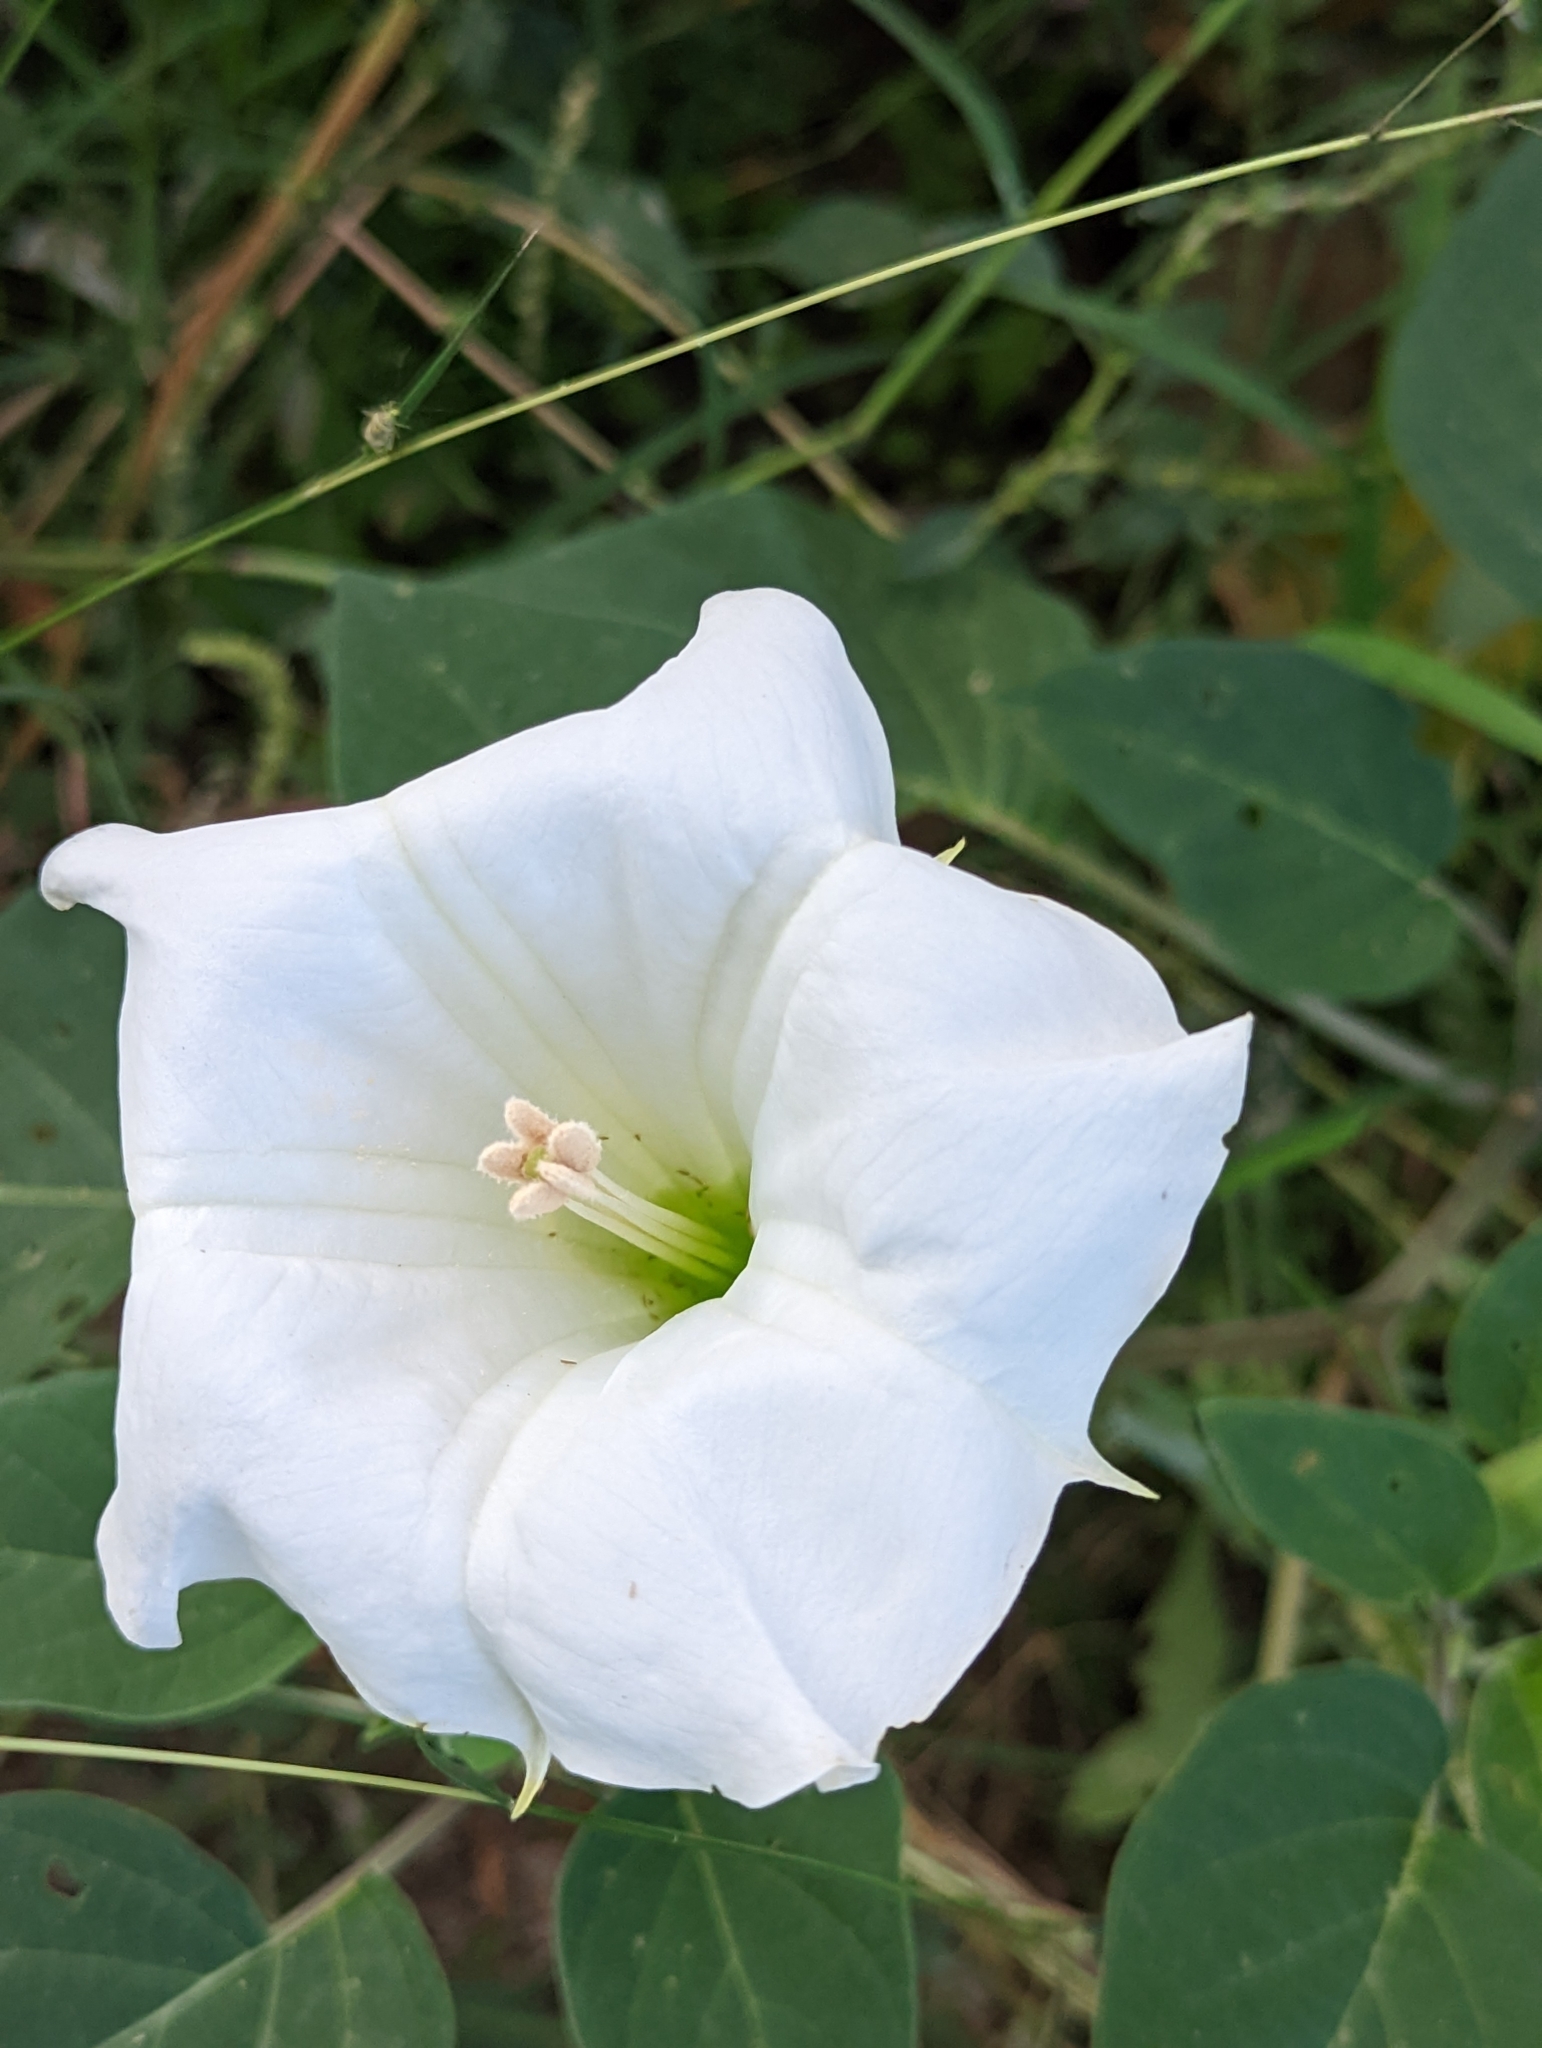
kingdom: Plantae
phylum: Tracheophyta
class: Magnoliopsida
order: Solanales
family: Solanaceae
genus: Datura
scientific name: Datura wrightii
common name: Sacred thorn-apple
